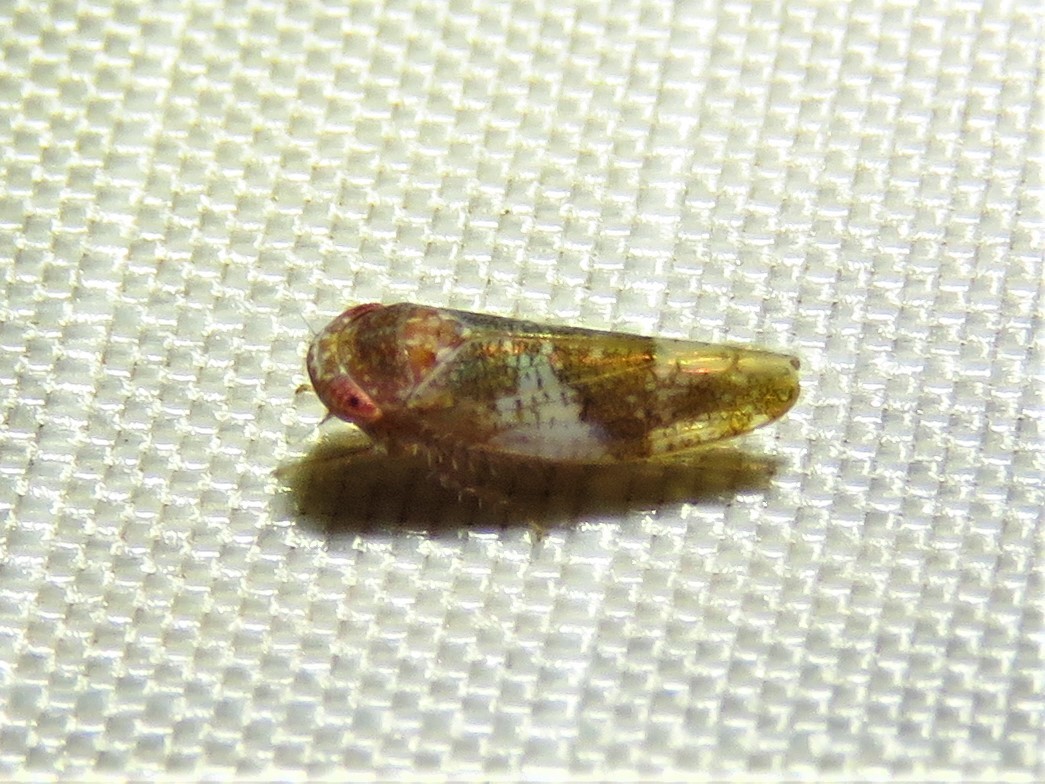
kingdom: Animalia
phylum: Arthropoda
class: Insecta
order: Hemiptera
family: Cicadellidae
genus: Norvellina
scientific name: Norvellina helenae
